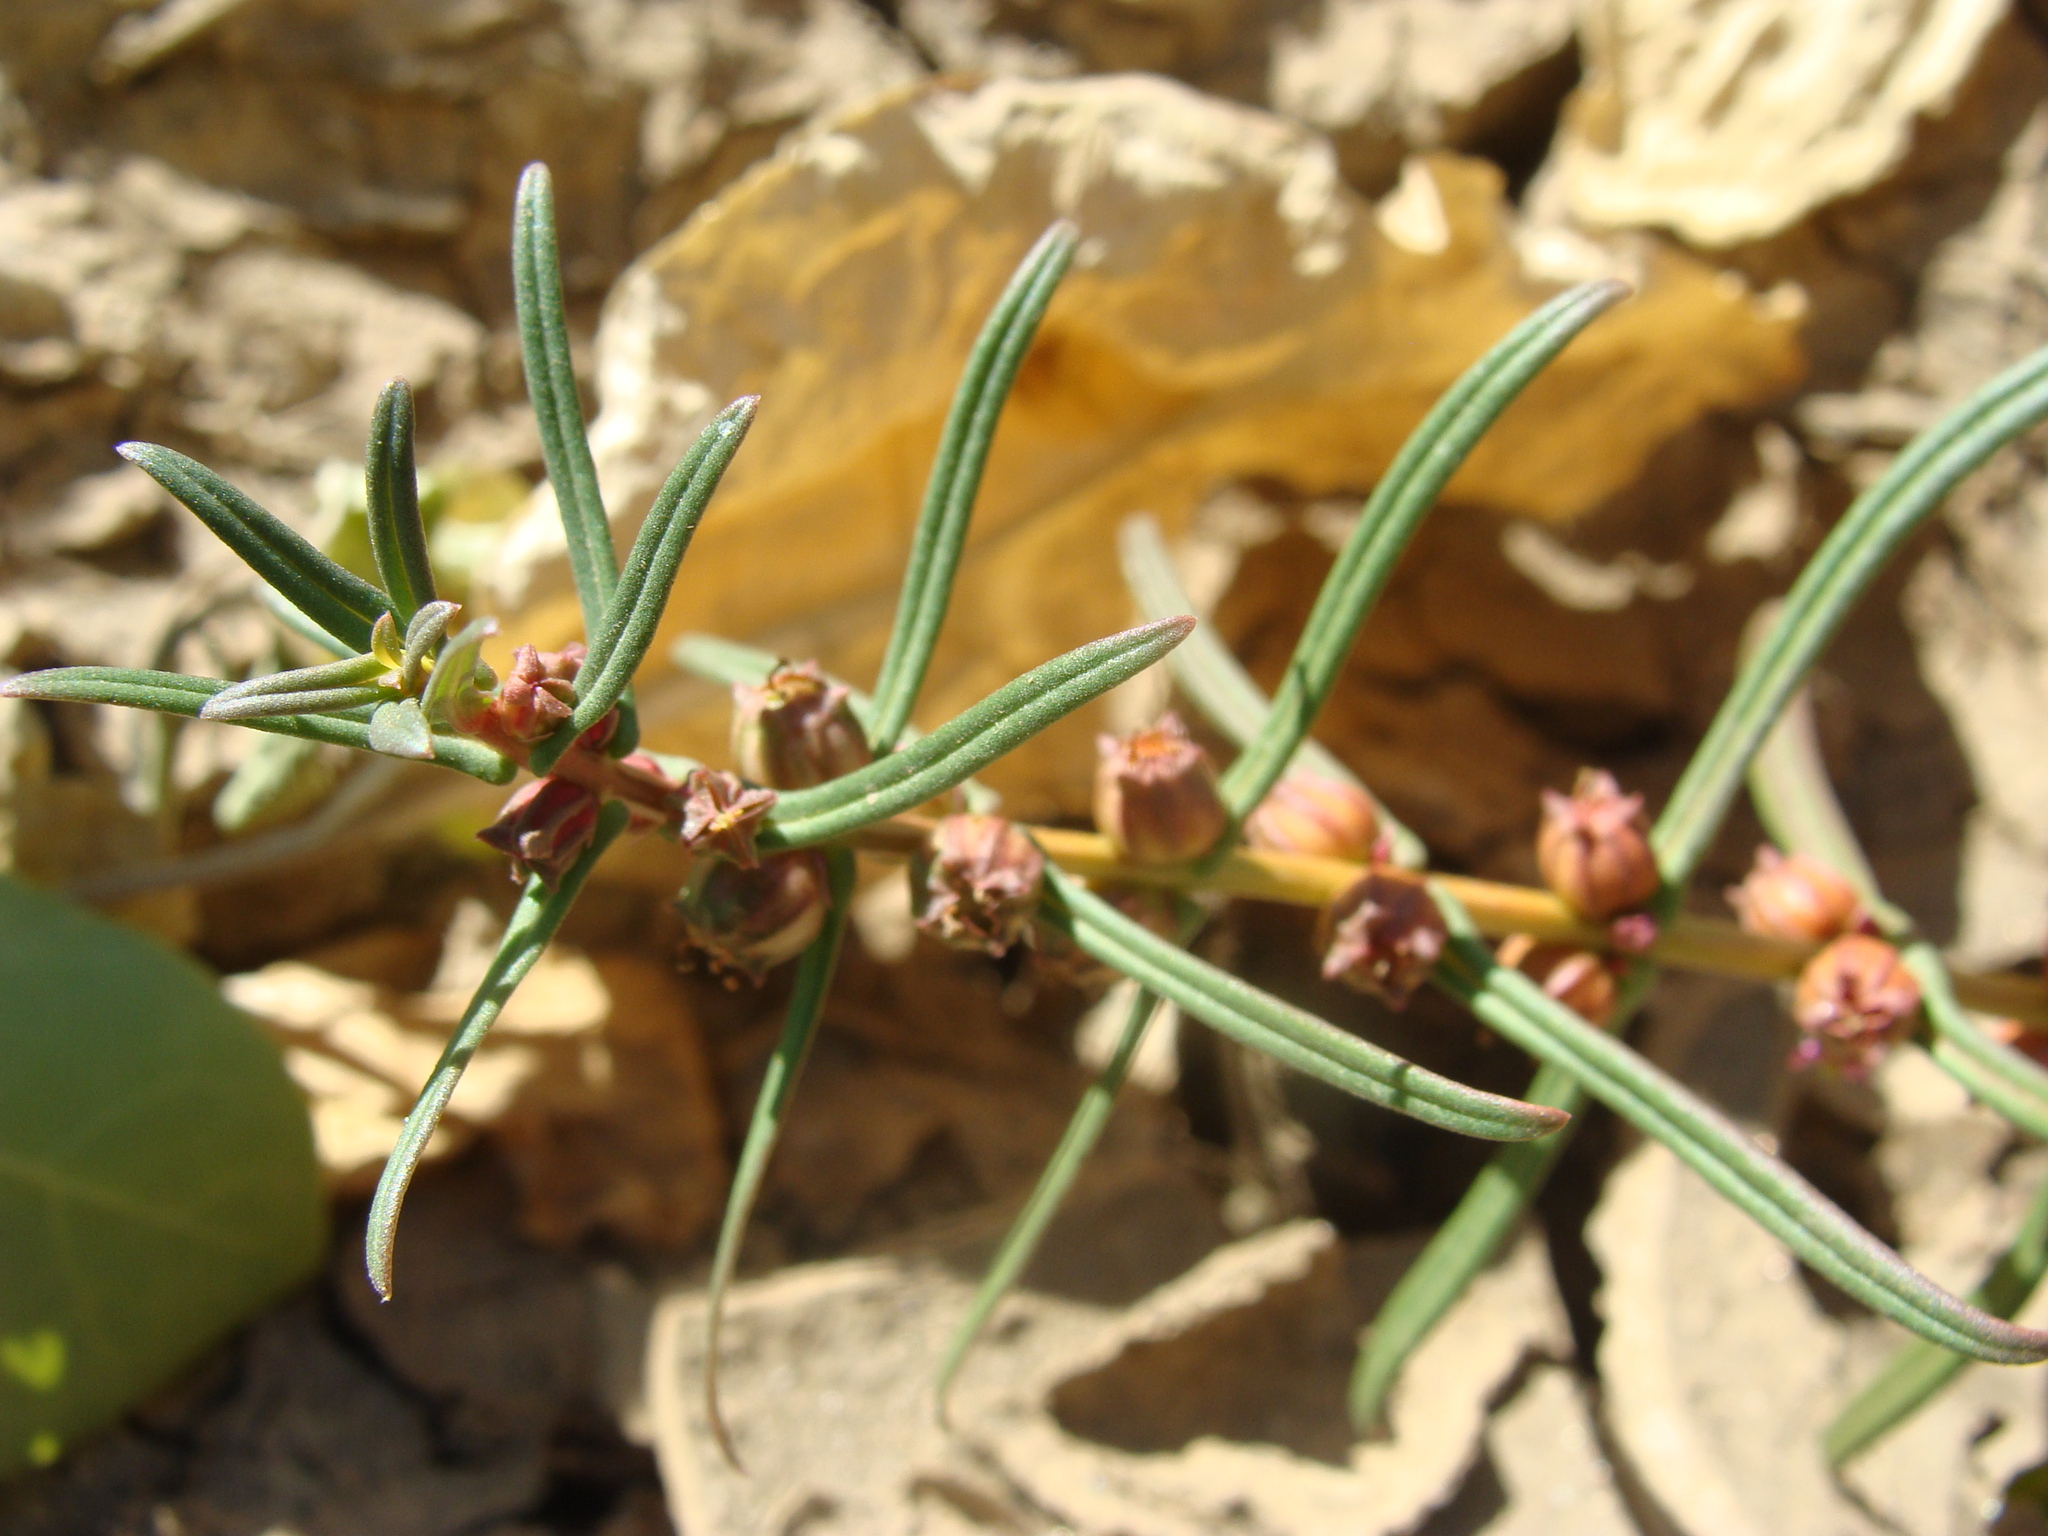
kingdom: Plantae
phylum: Tracheophyta
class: Magnoliopsida
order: Myrtales
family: Lythraceae
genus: Ammannia
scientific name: Ammannia coccinea
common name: Valley redstem
